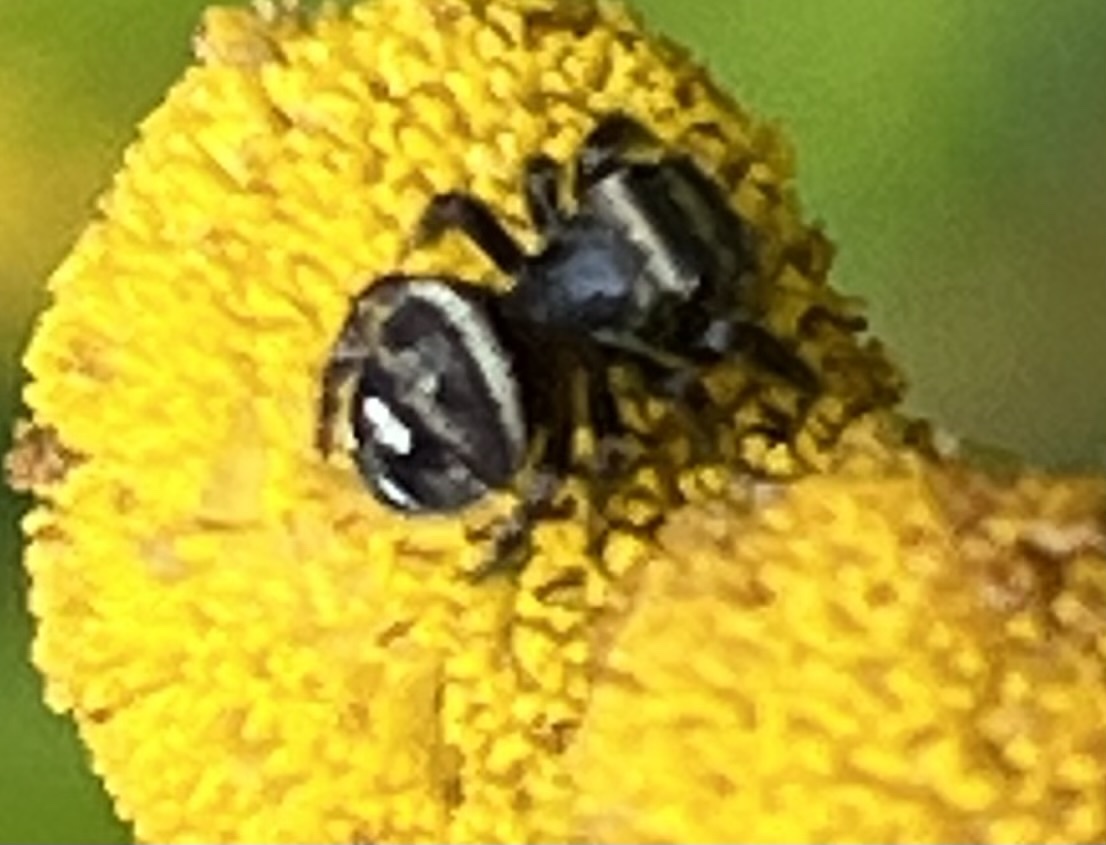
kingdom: Animalia
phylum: Arthropoda
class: Arachnida
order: Araneae
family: Salticidae
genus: Phidippus
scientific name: Phidippus audax
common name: Bold jumper
